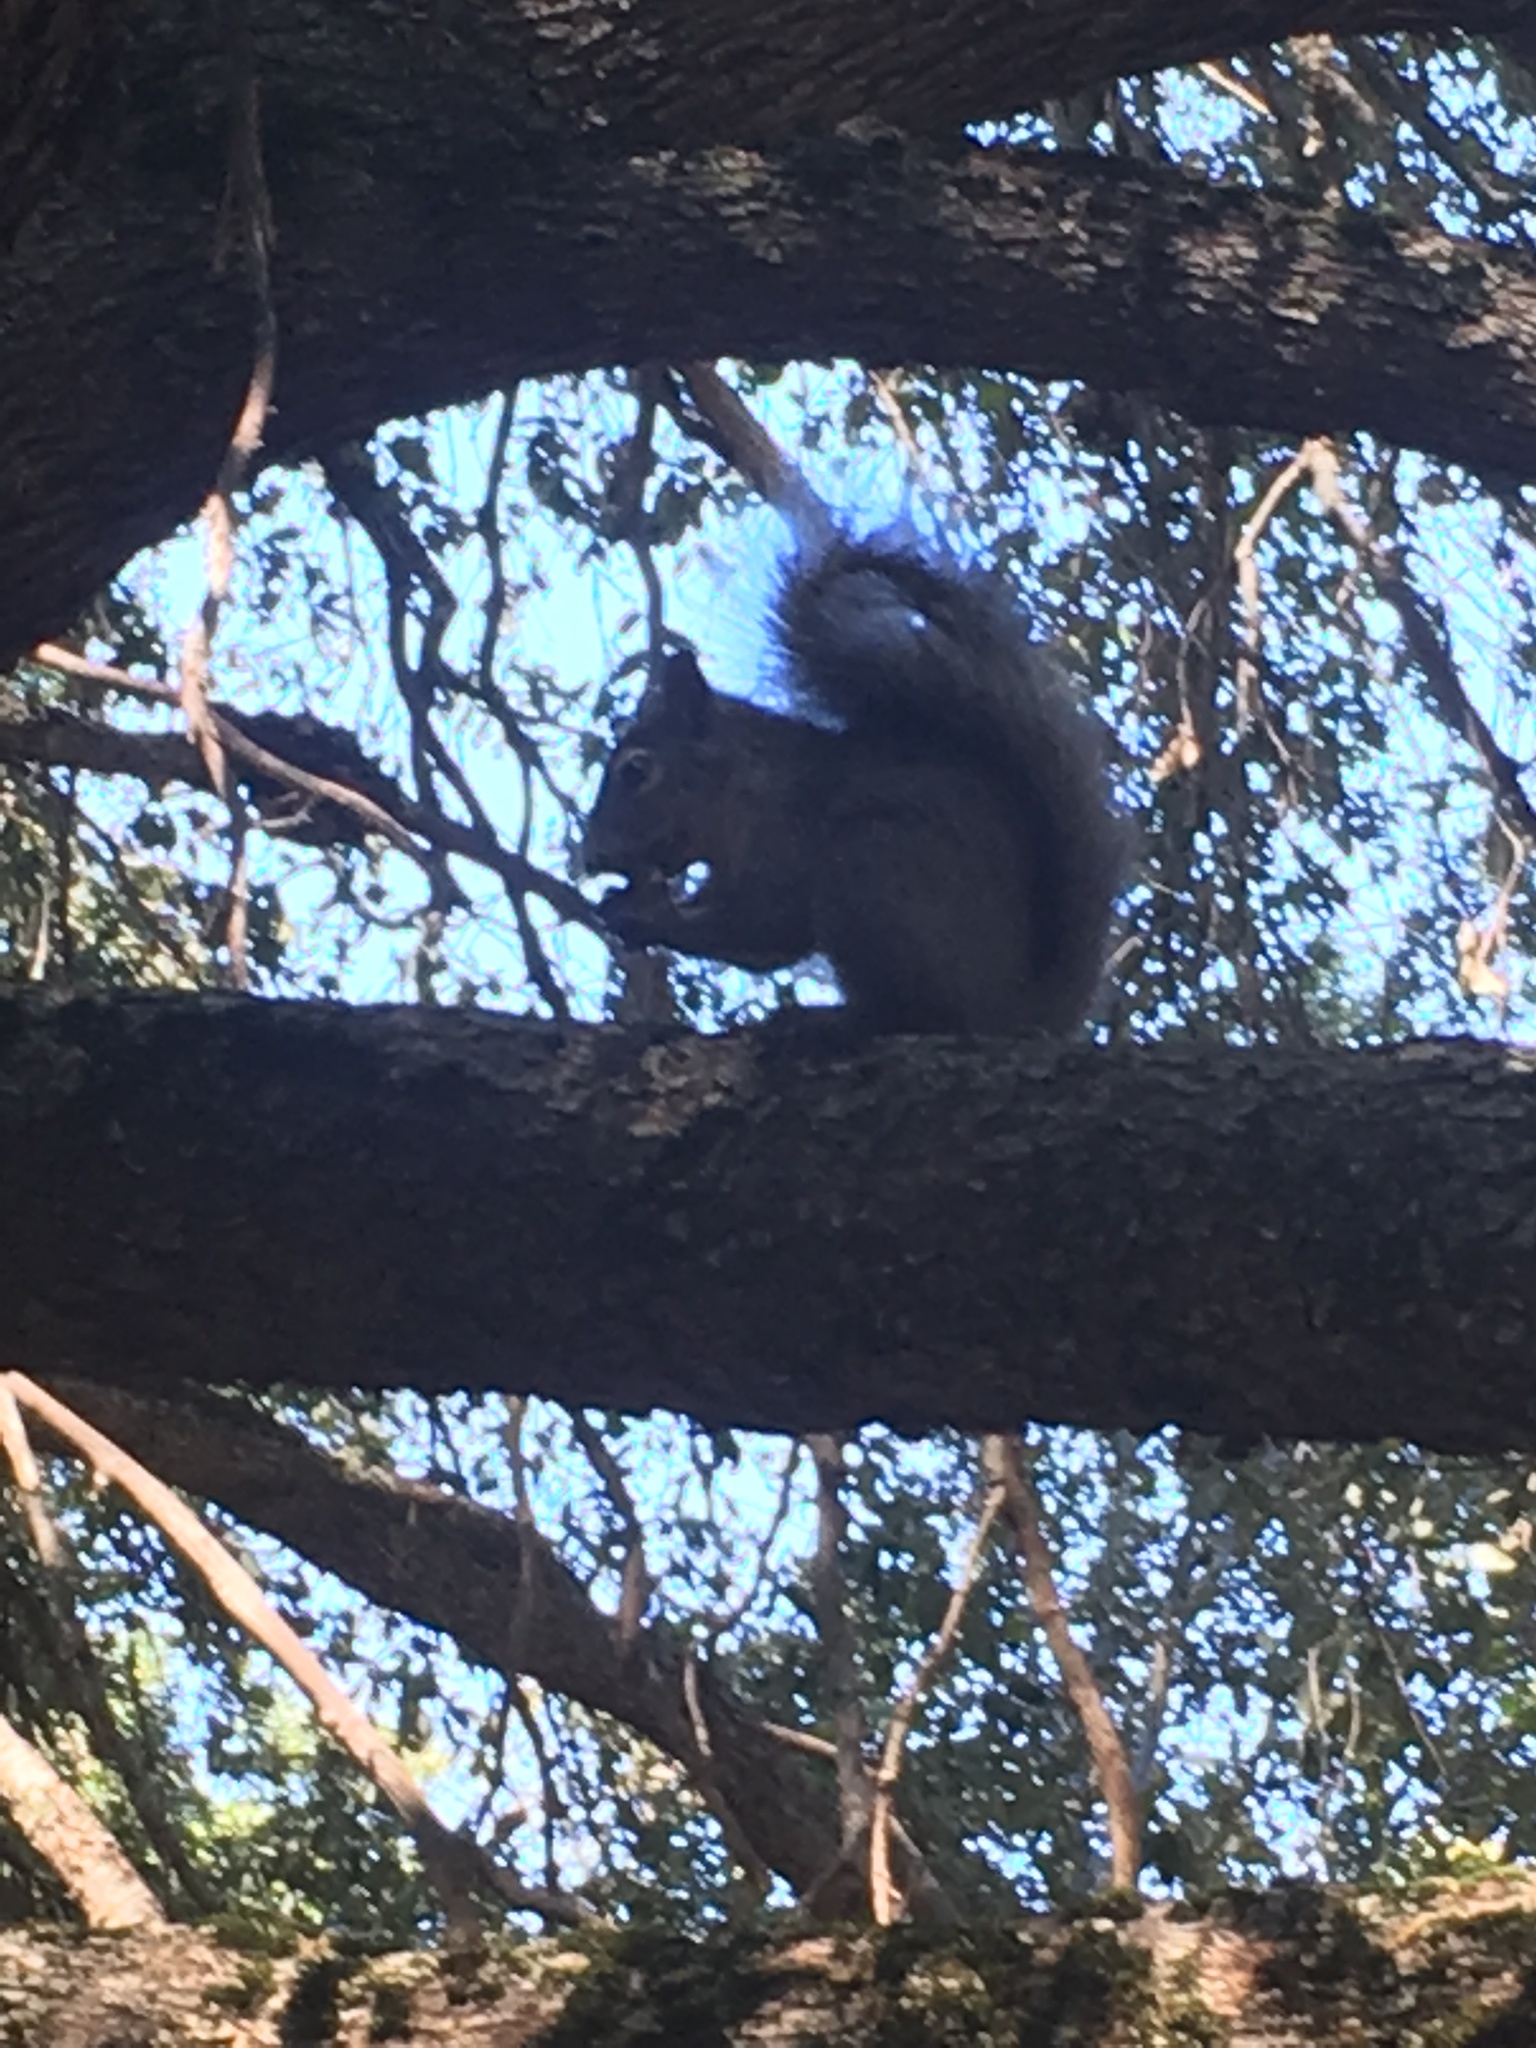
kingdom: Animalia
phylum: Chordata
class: Mammalia
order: Rodentia
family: Sciuridae
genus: Sciurus
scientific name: Sciurus griseus
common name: Western gray squirrel
